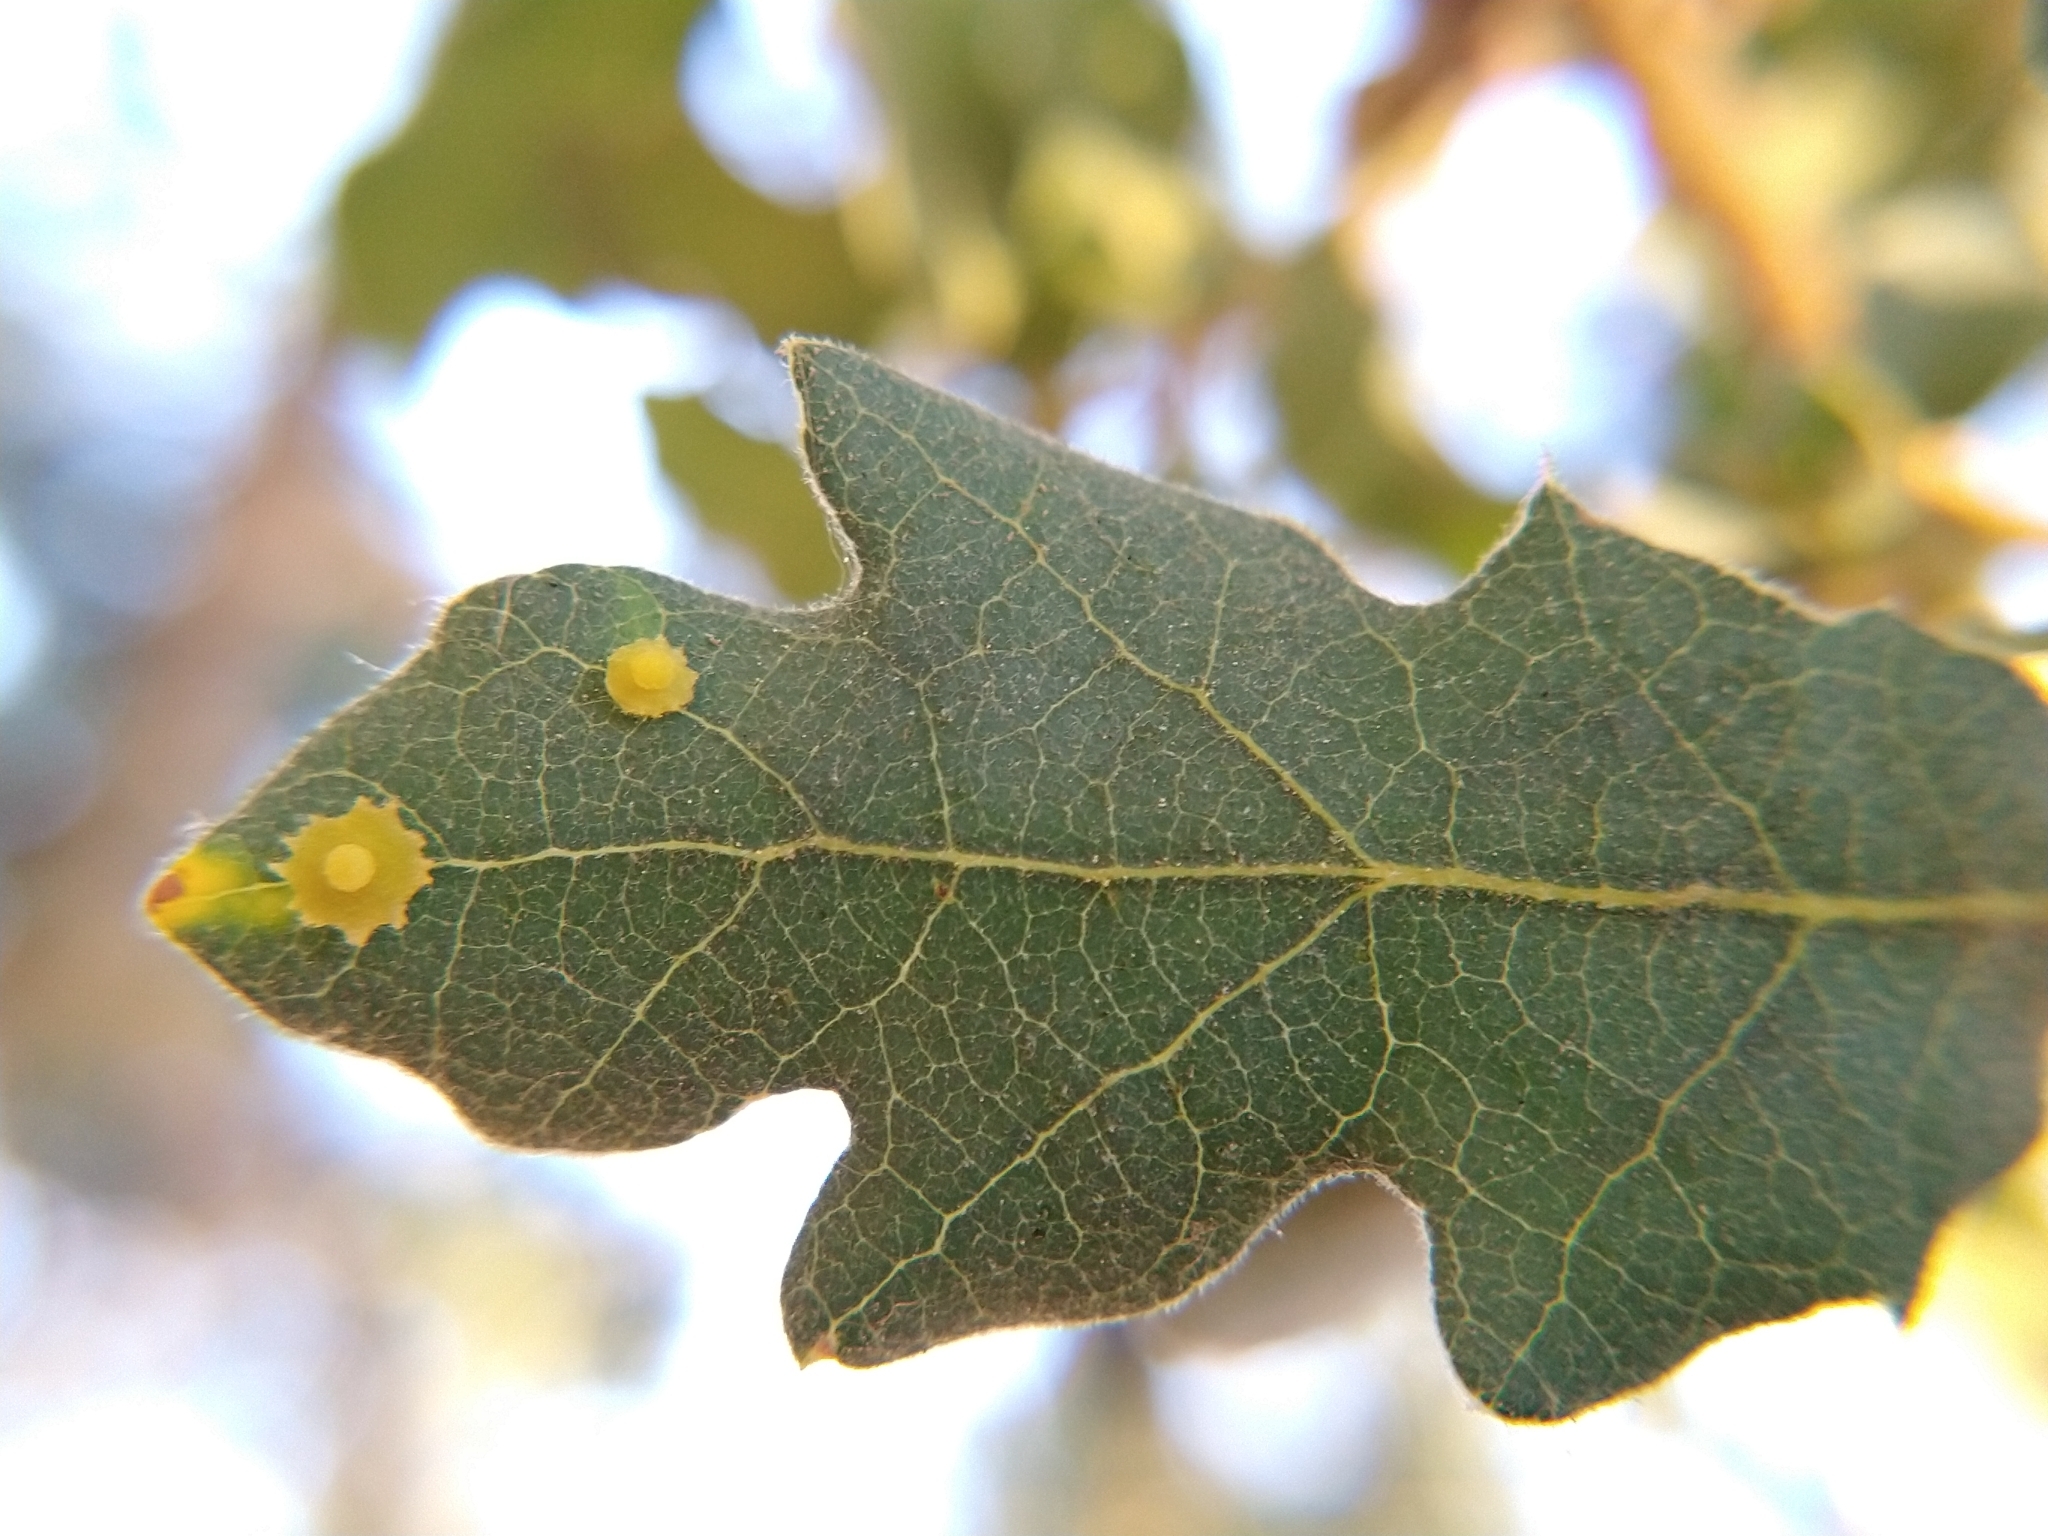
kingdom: Animalia
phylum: Arthropoda
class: Insecta
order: Hymenoptera
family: Cynipidae
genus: Andricus
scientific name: Andricus
